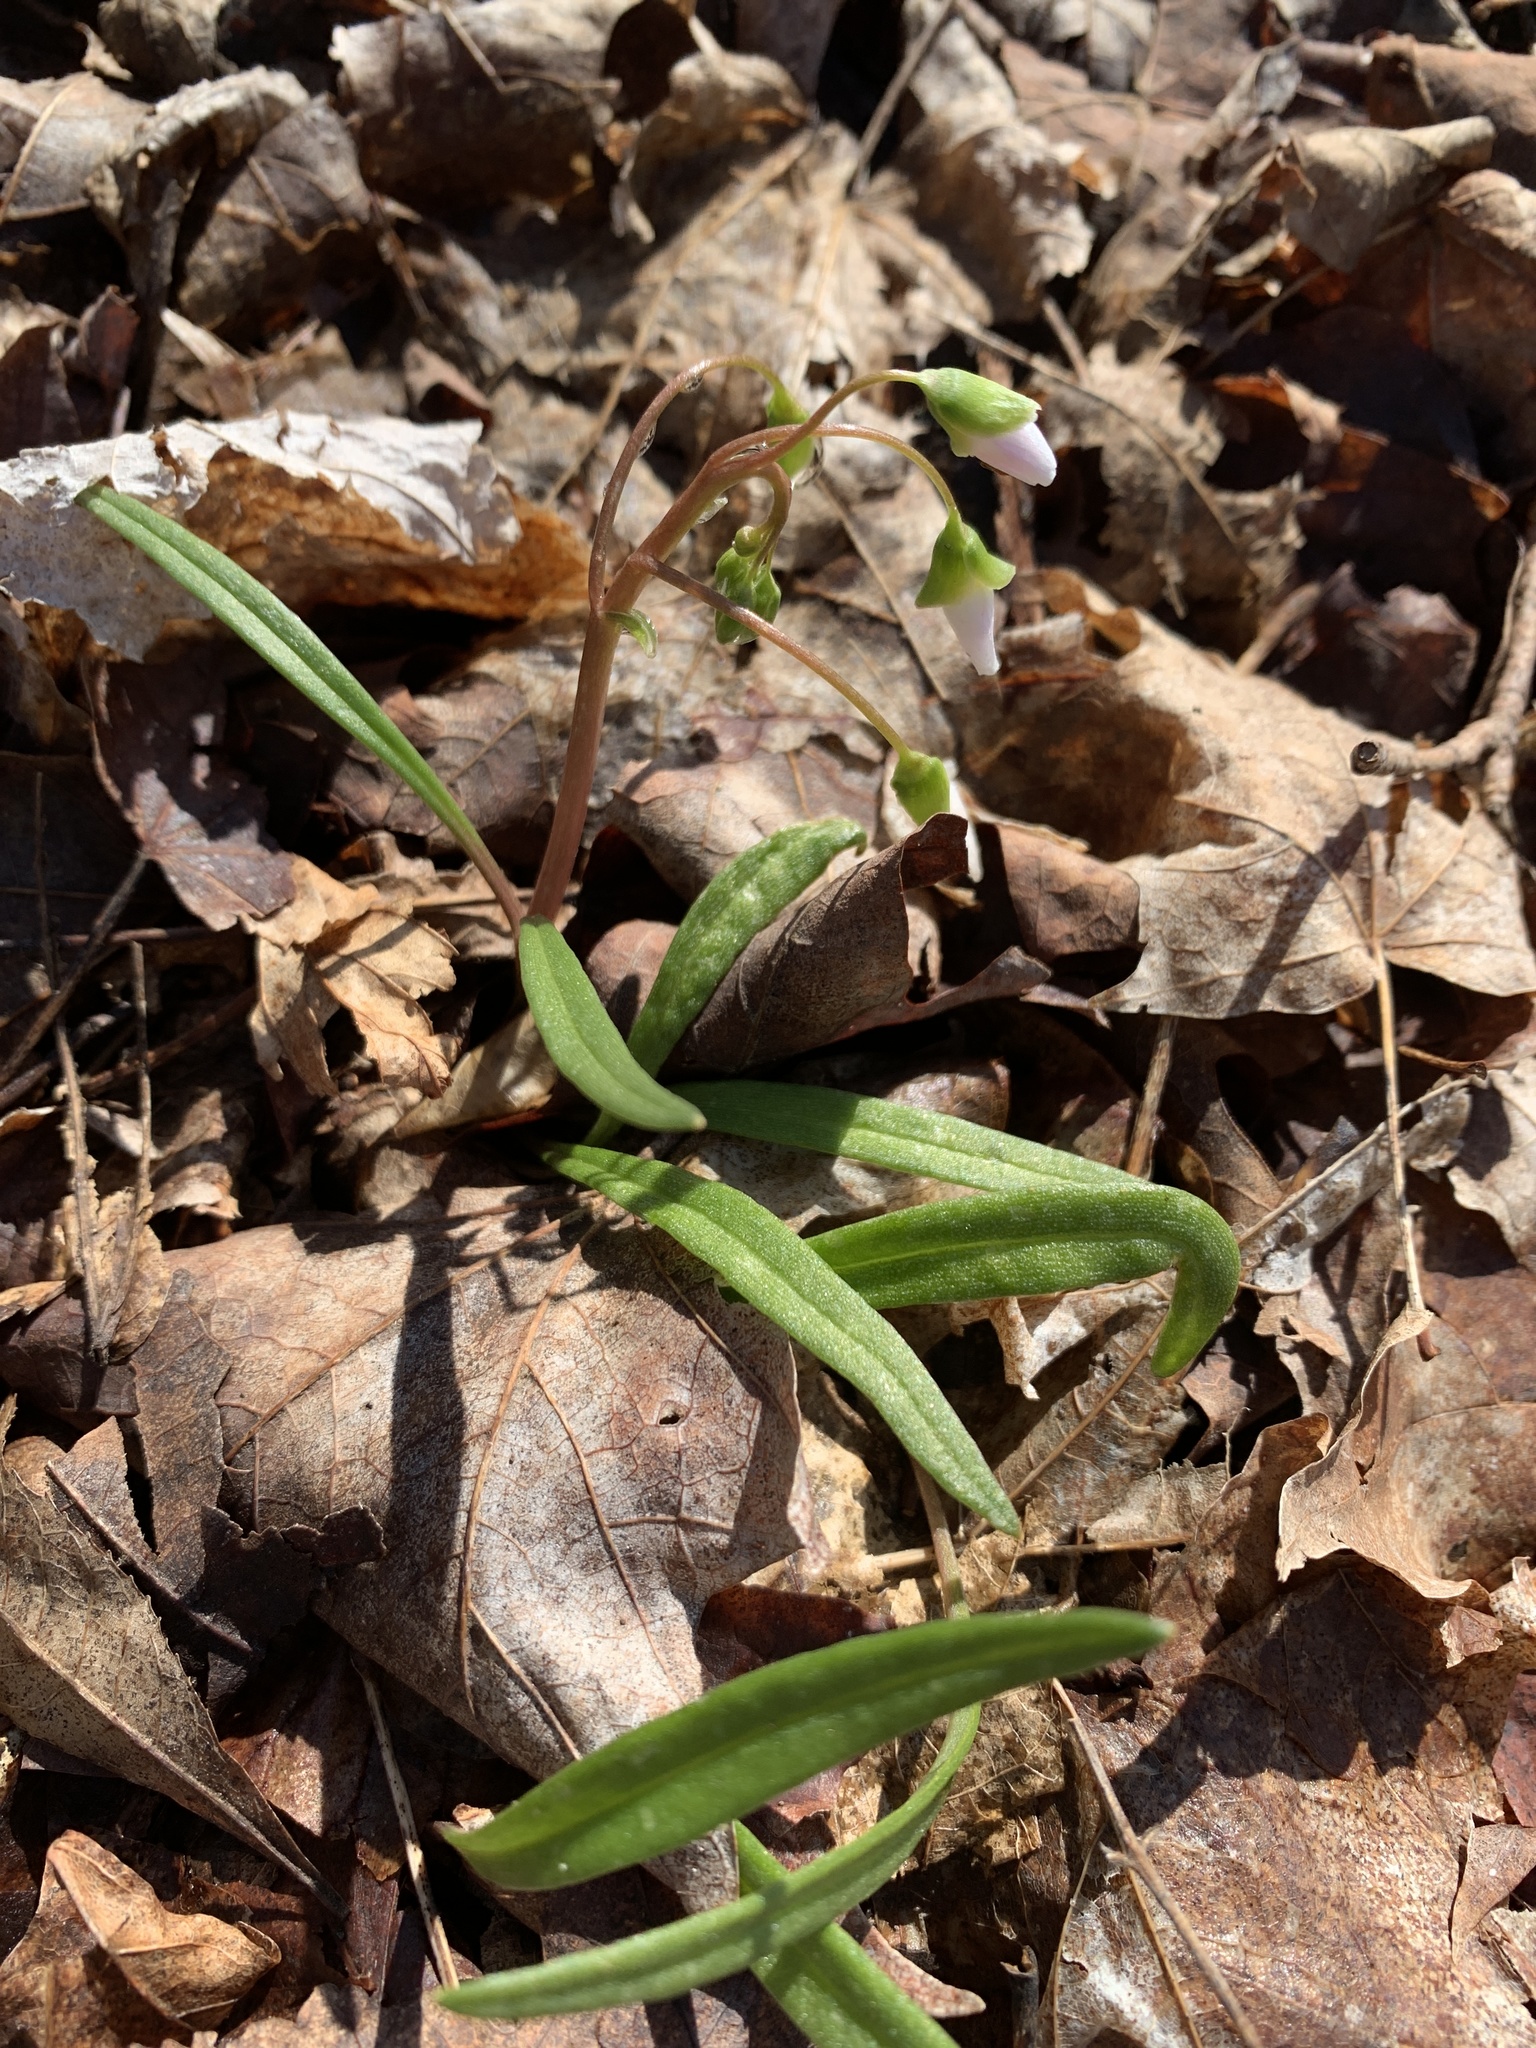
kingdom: Plantae
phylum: Tracheophyta
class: Magnoliopsida
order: Caryophyllales
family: Montiaceae
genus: Claytonia
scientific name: Claytonia virginica
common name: Virginia springbeauty
